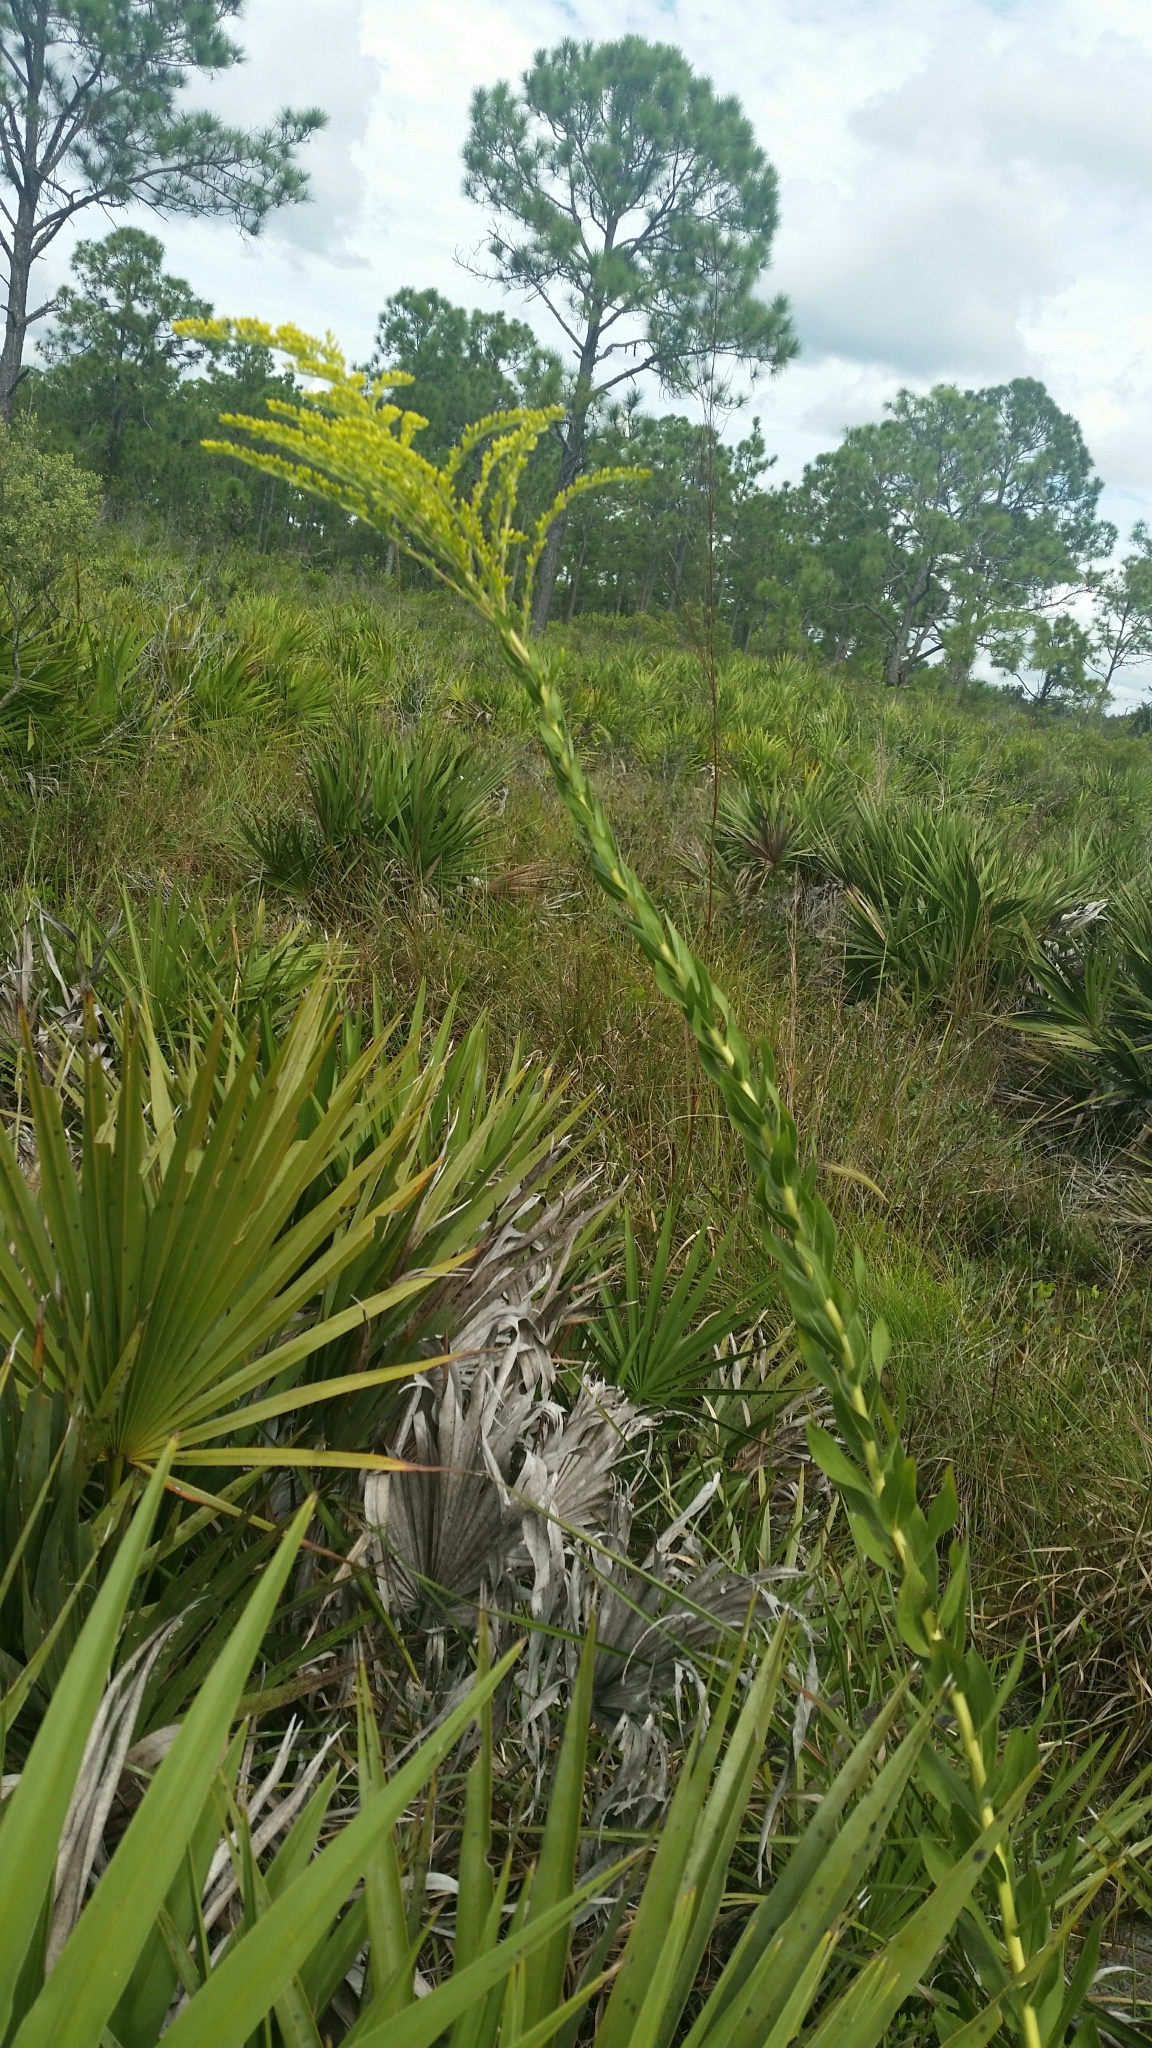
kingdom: Plantae
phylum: Tracheophyta
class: Magnoliopsida
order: Asterales
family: Asteraceae
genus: Solidago
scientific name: Solidago fistulosa
